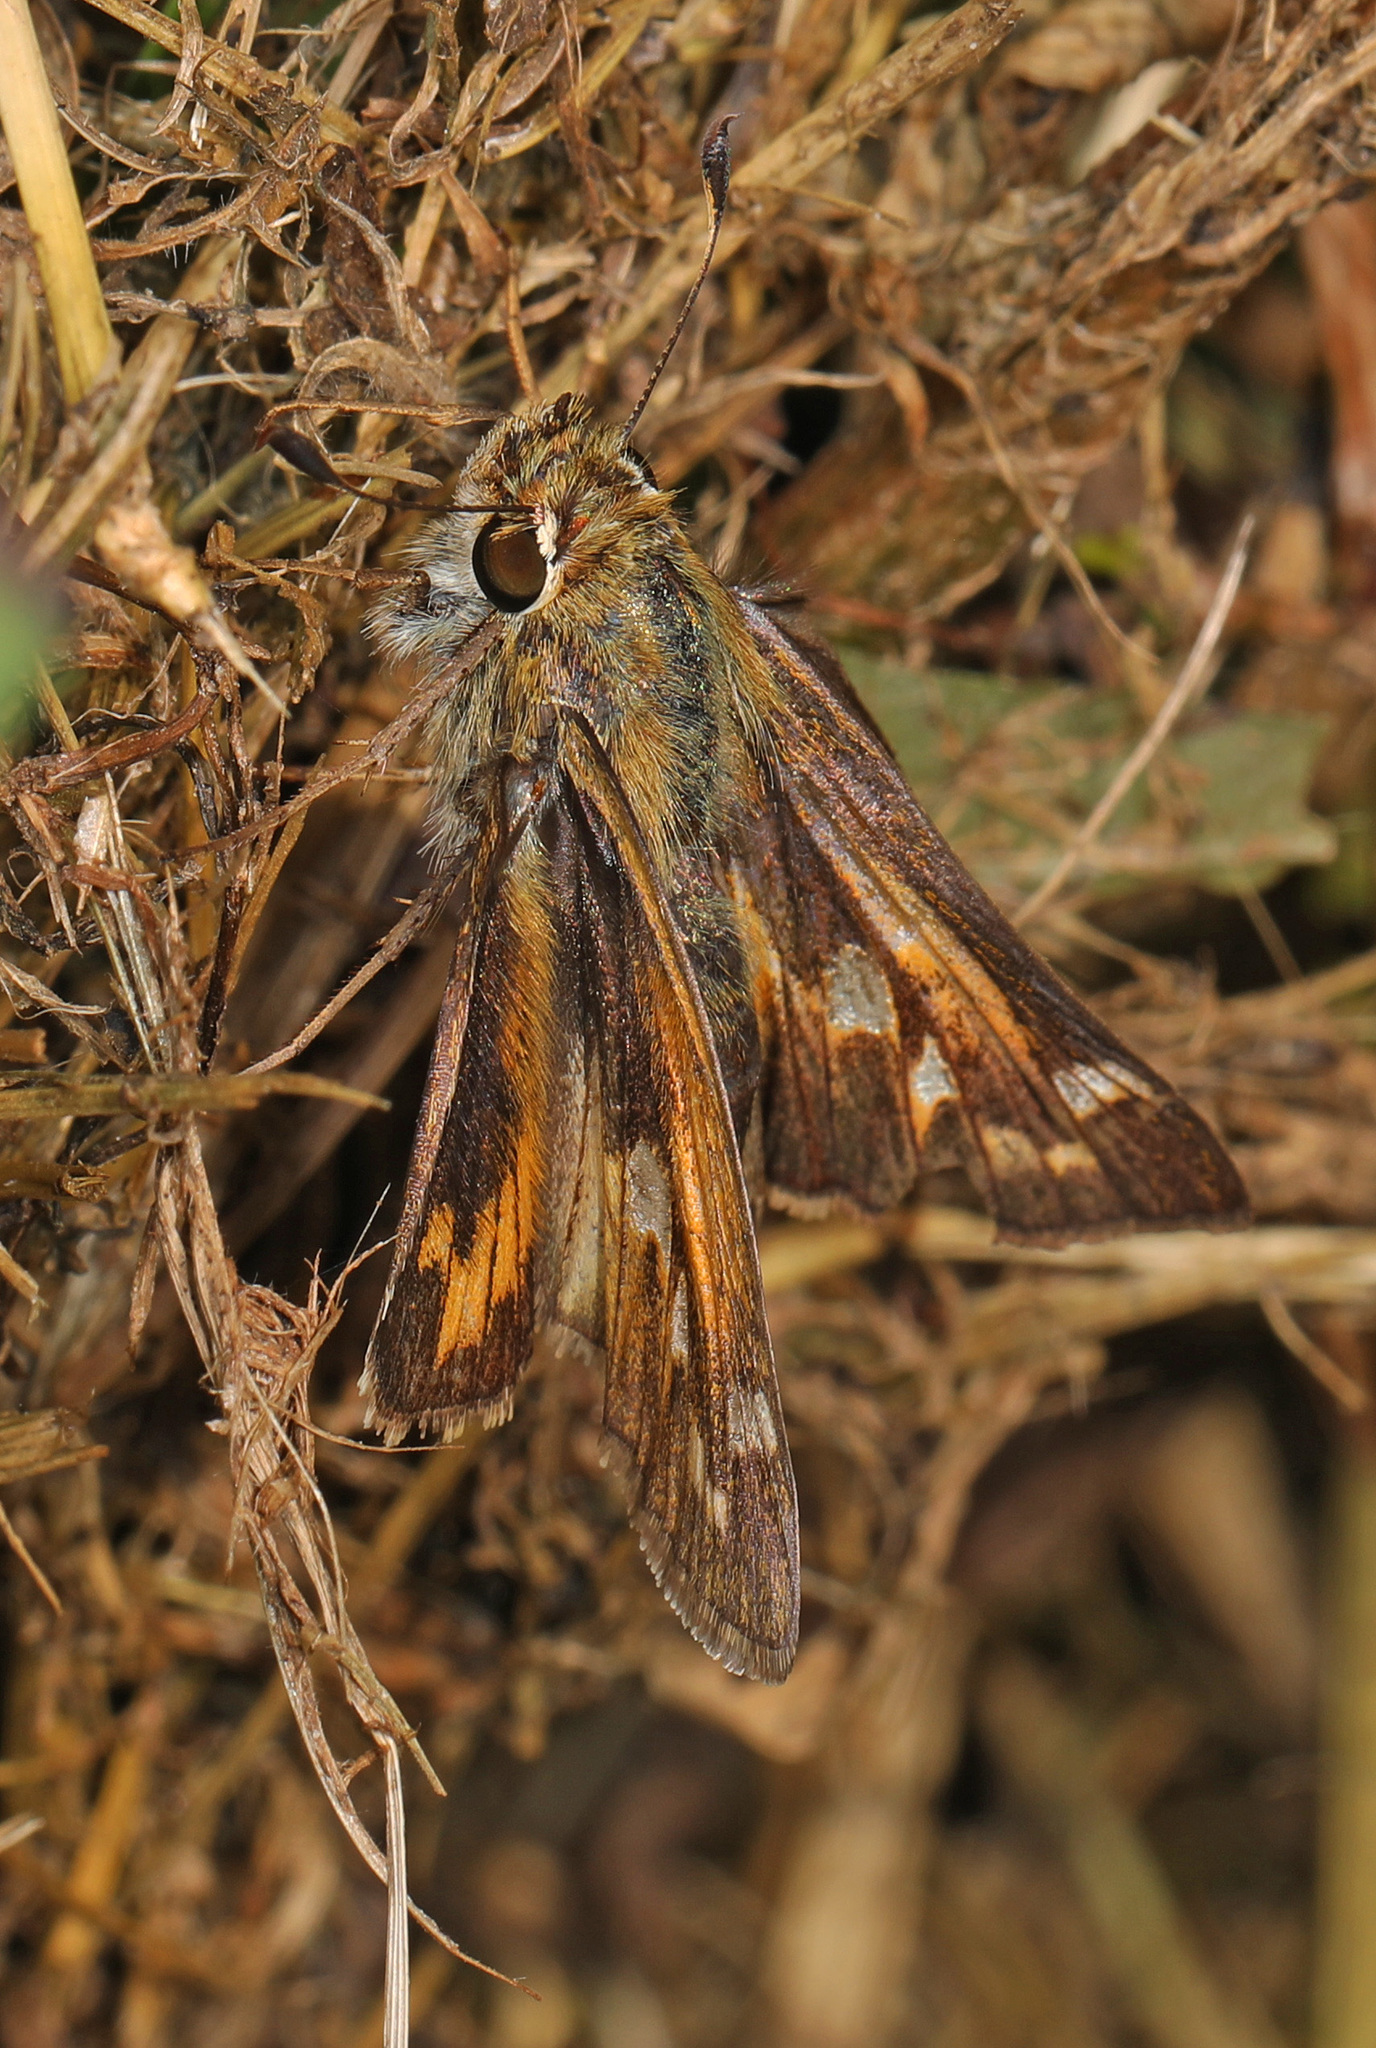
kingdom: Animalia
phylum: Arthropoda
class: Insecta
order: Lepidoptera
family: Hesperiidae
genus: Atalopedes
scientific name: Atalopedes
